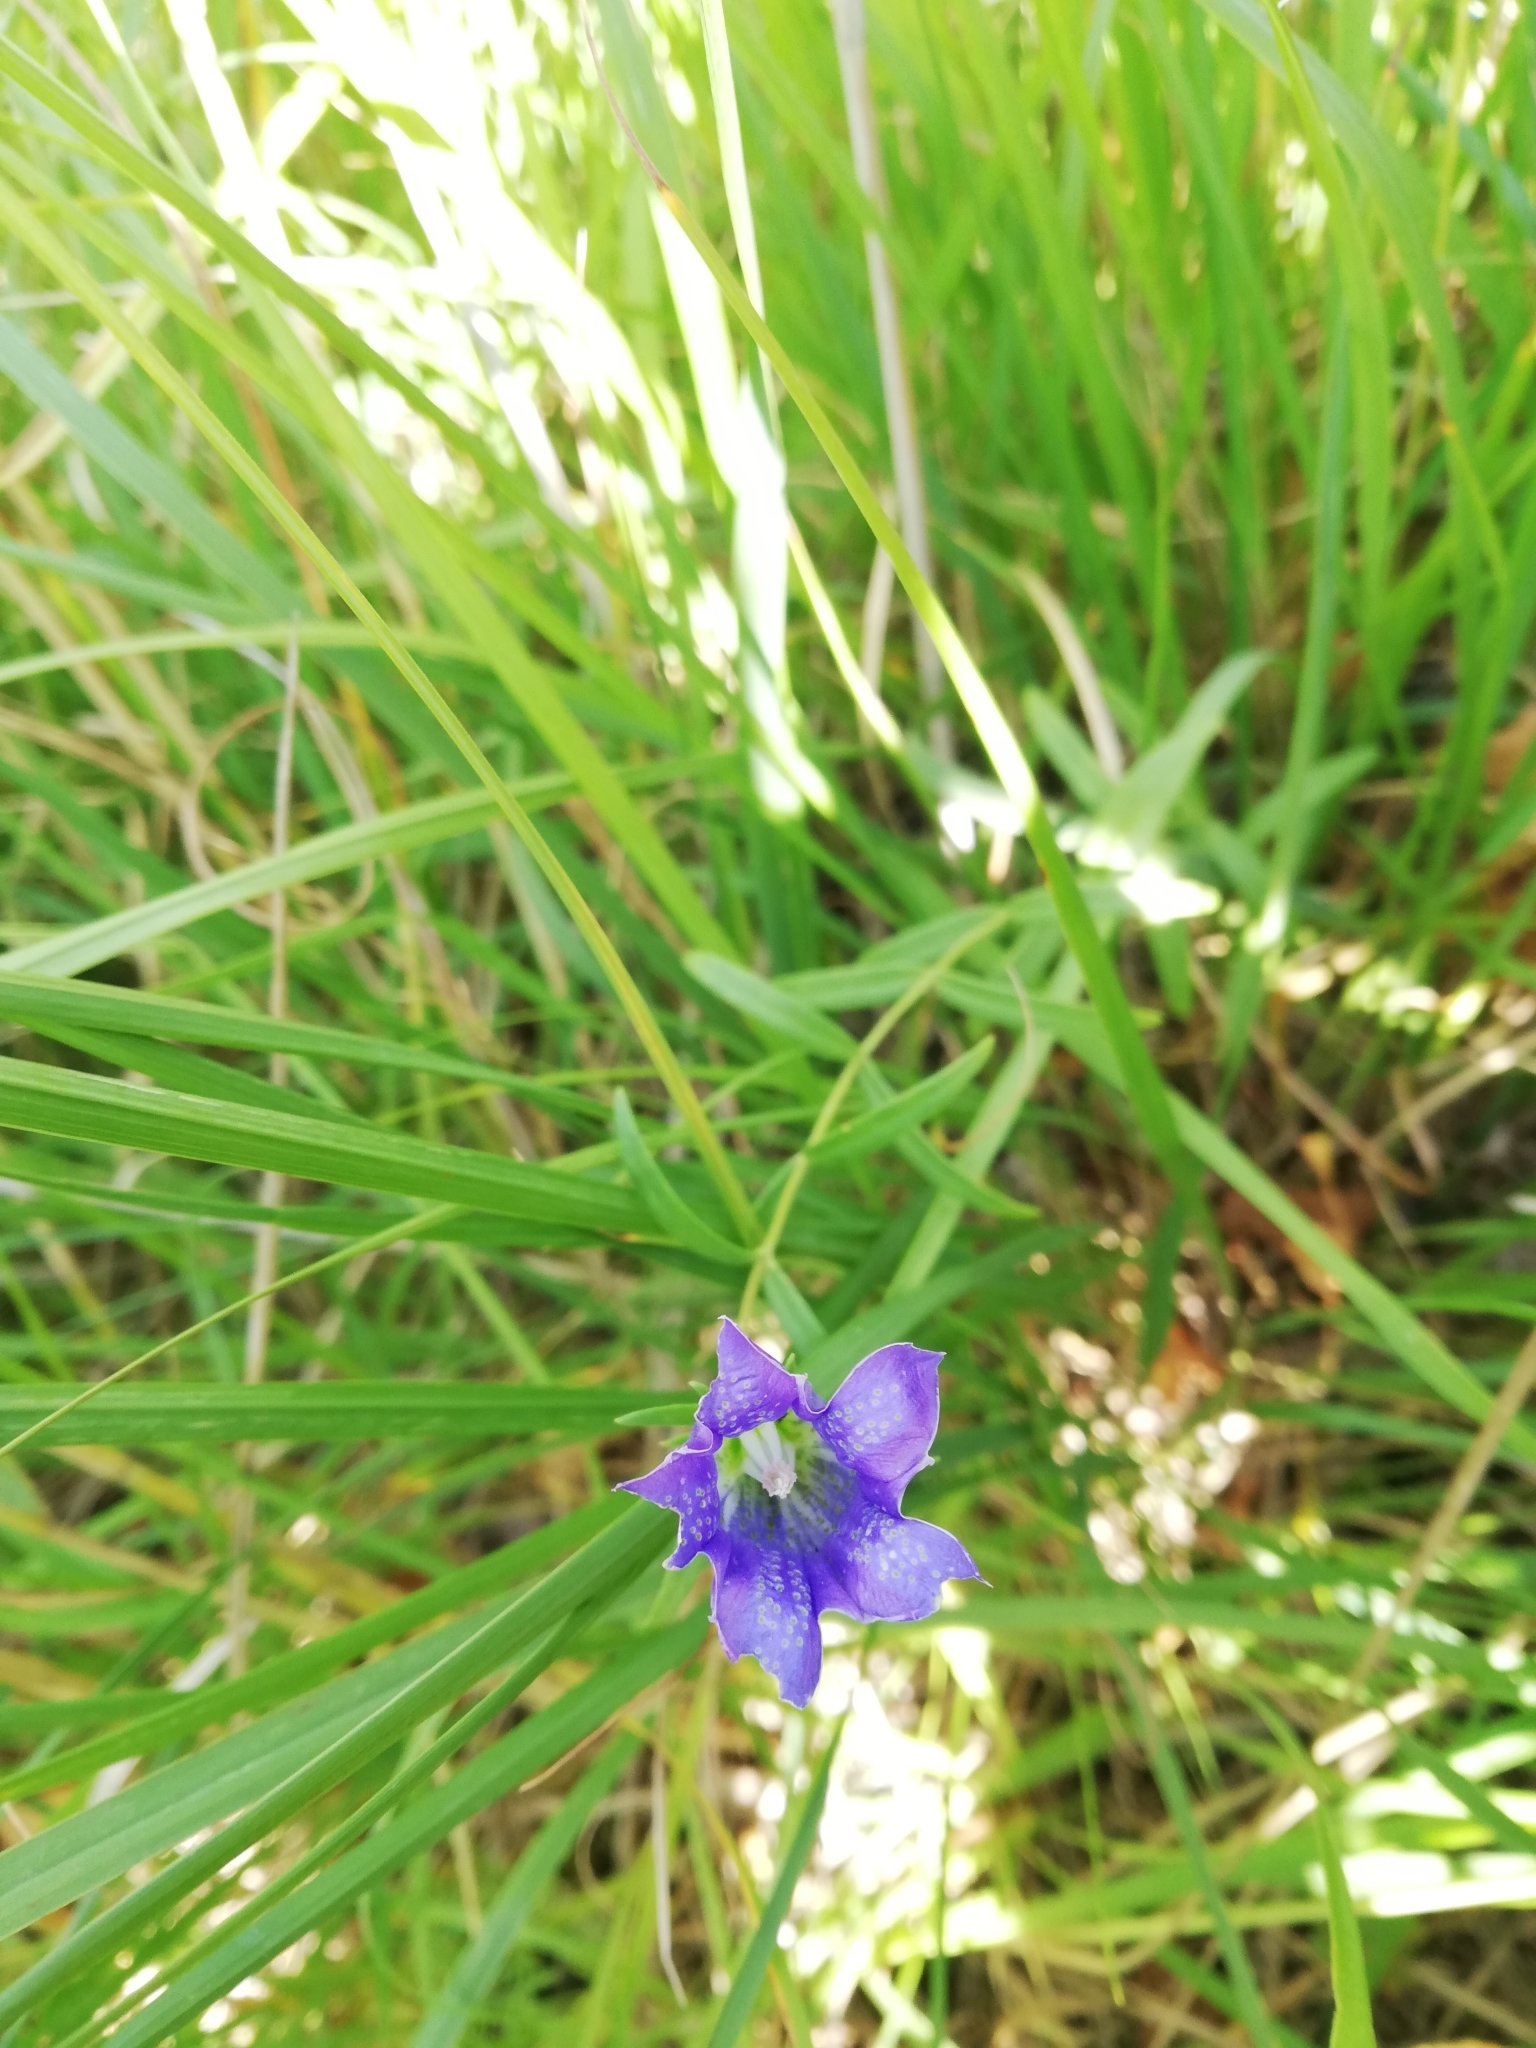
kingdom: Plantae
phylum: Tracheophyta
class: Magnoliopsida
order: Gentianales
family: Gentianaceae
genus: Gentiana
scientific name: Gentiana pneumonanthe
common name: Marsh gentian
